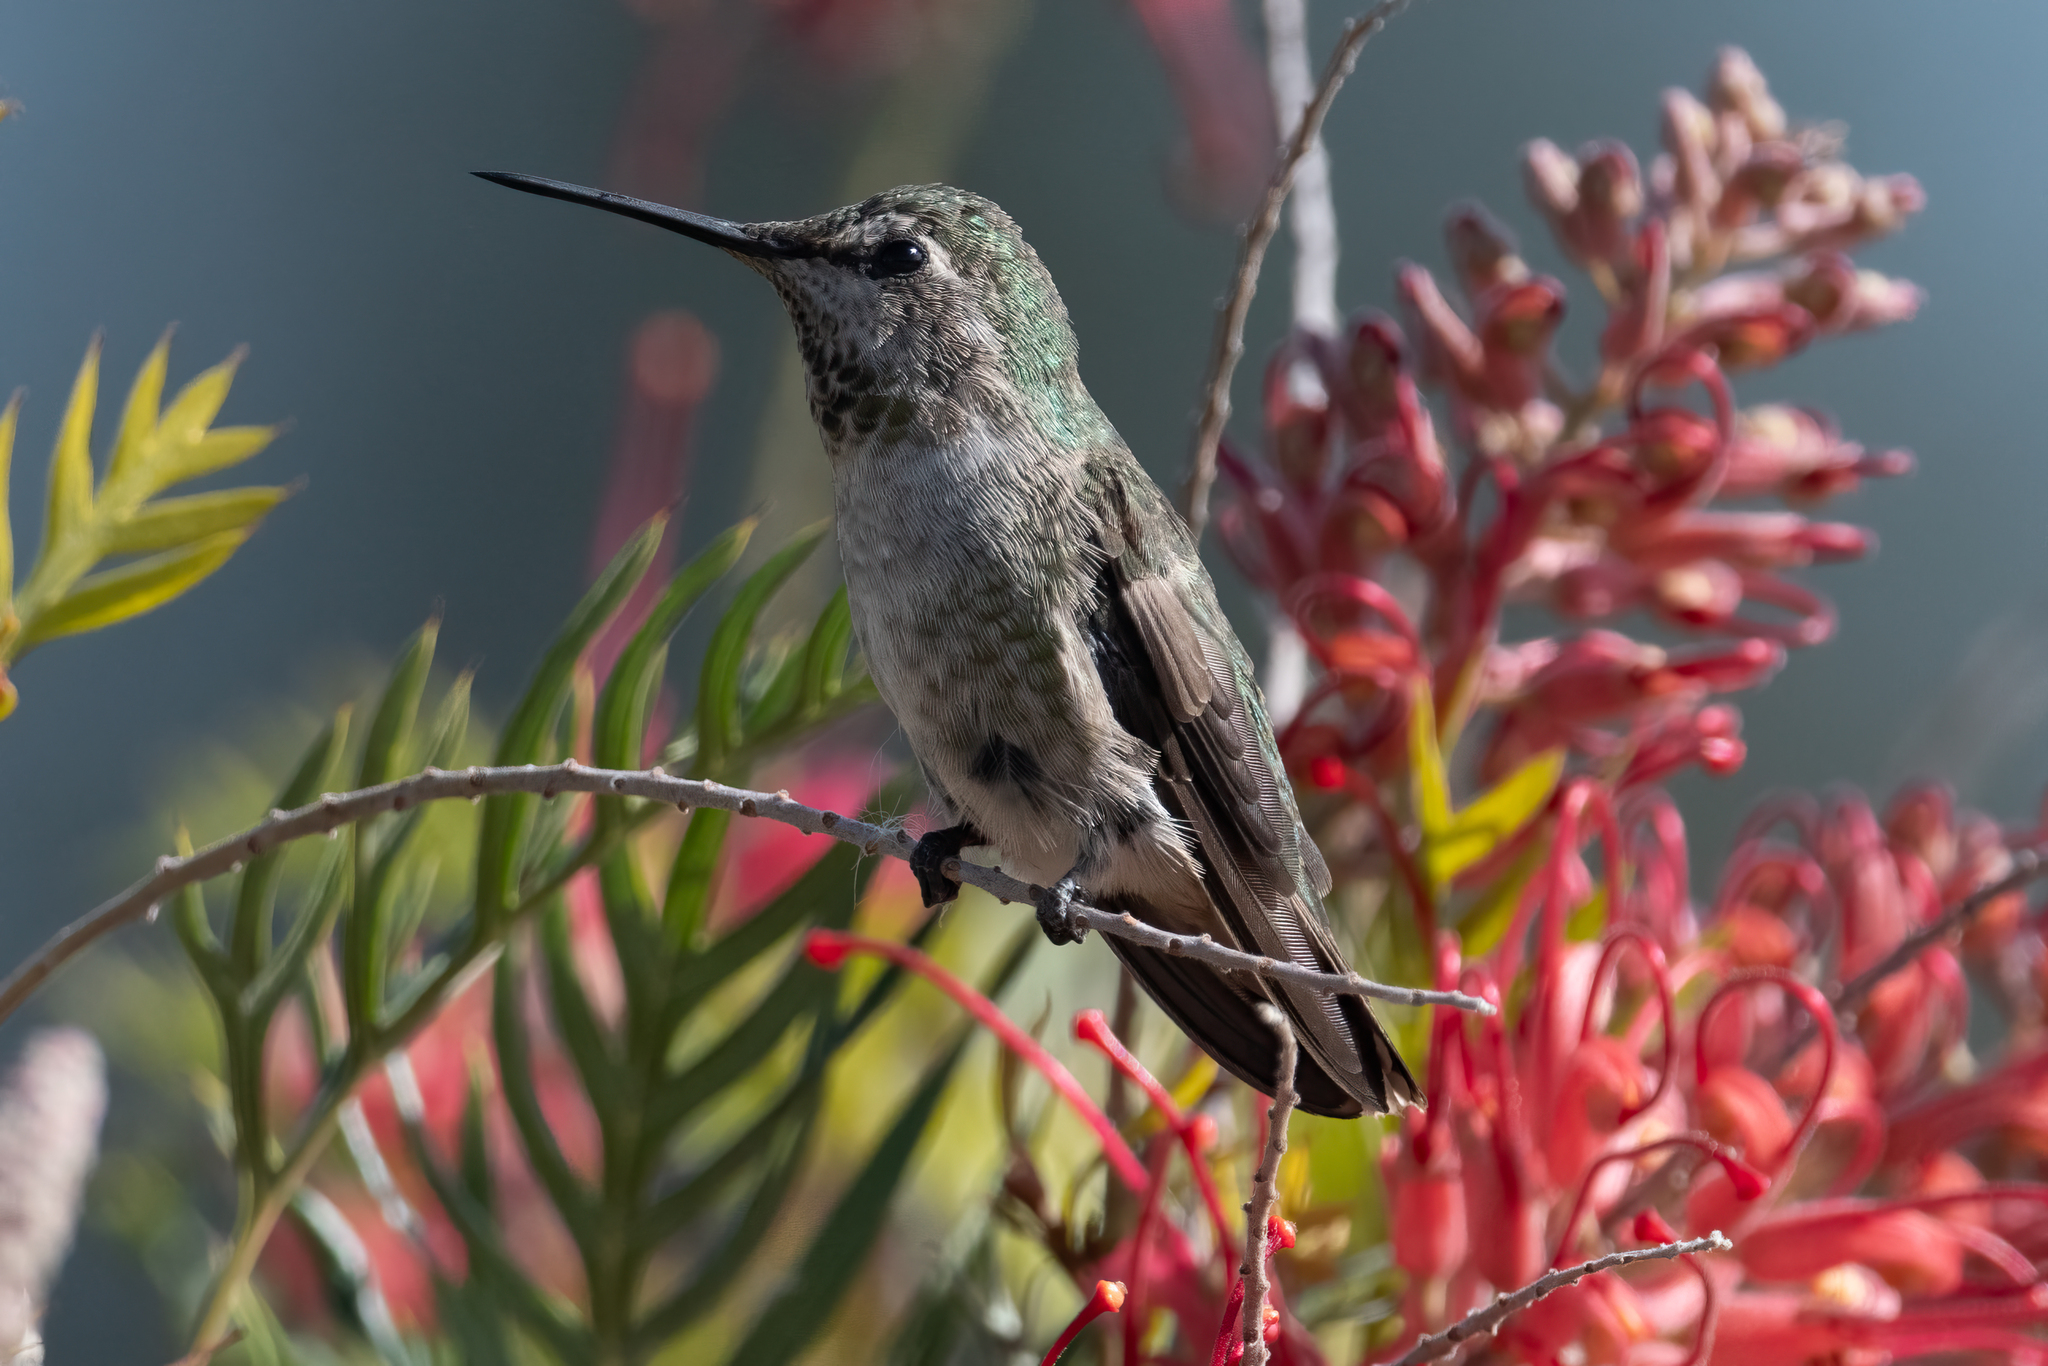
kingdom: Animalia
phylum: Chordata
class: Aves
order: Apodiformes
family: Trochilidae
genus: Calypte
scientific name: Calypte anna
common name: Anna's hummingbird
